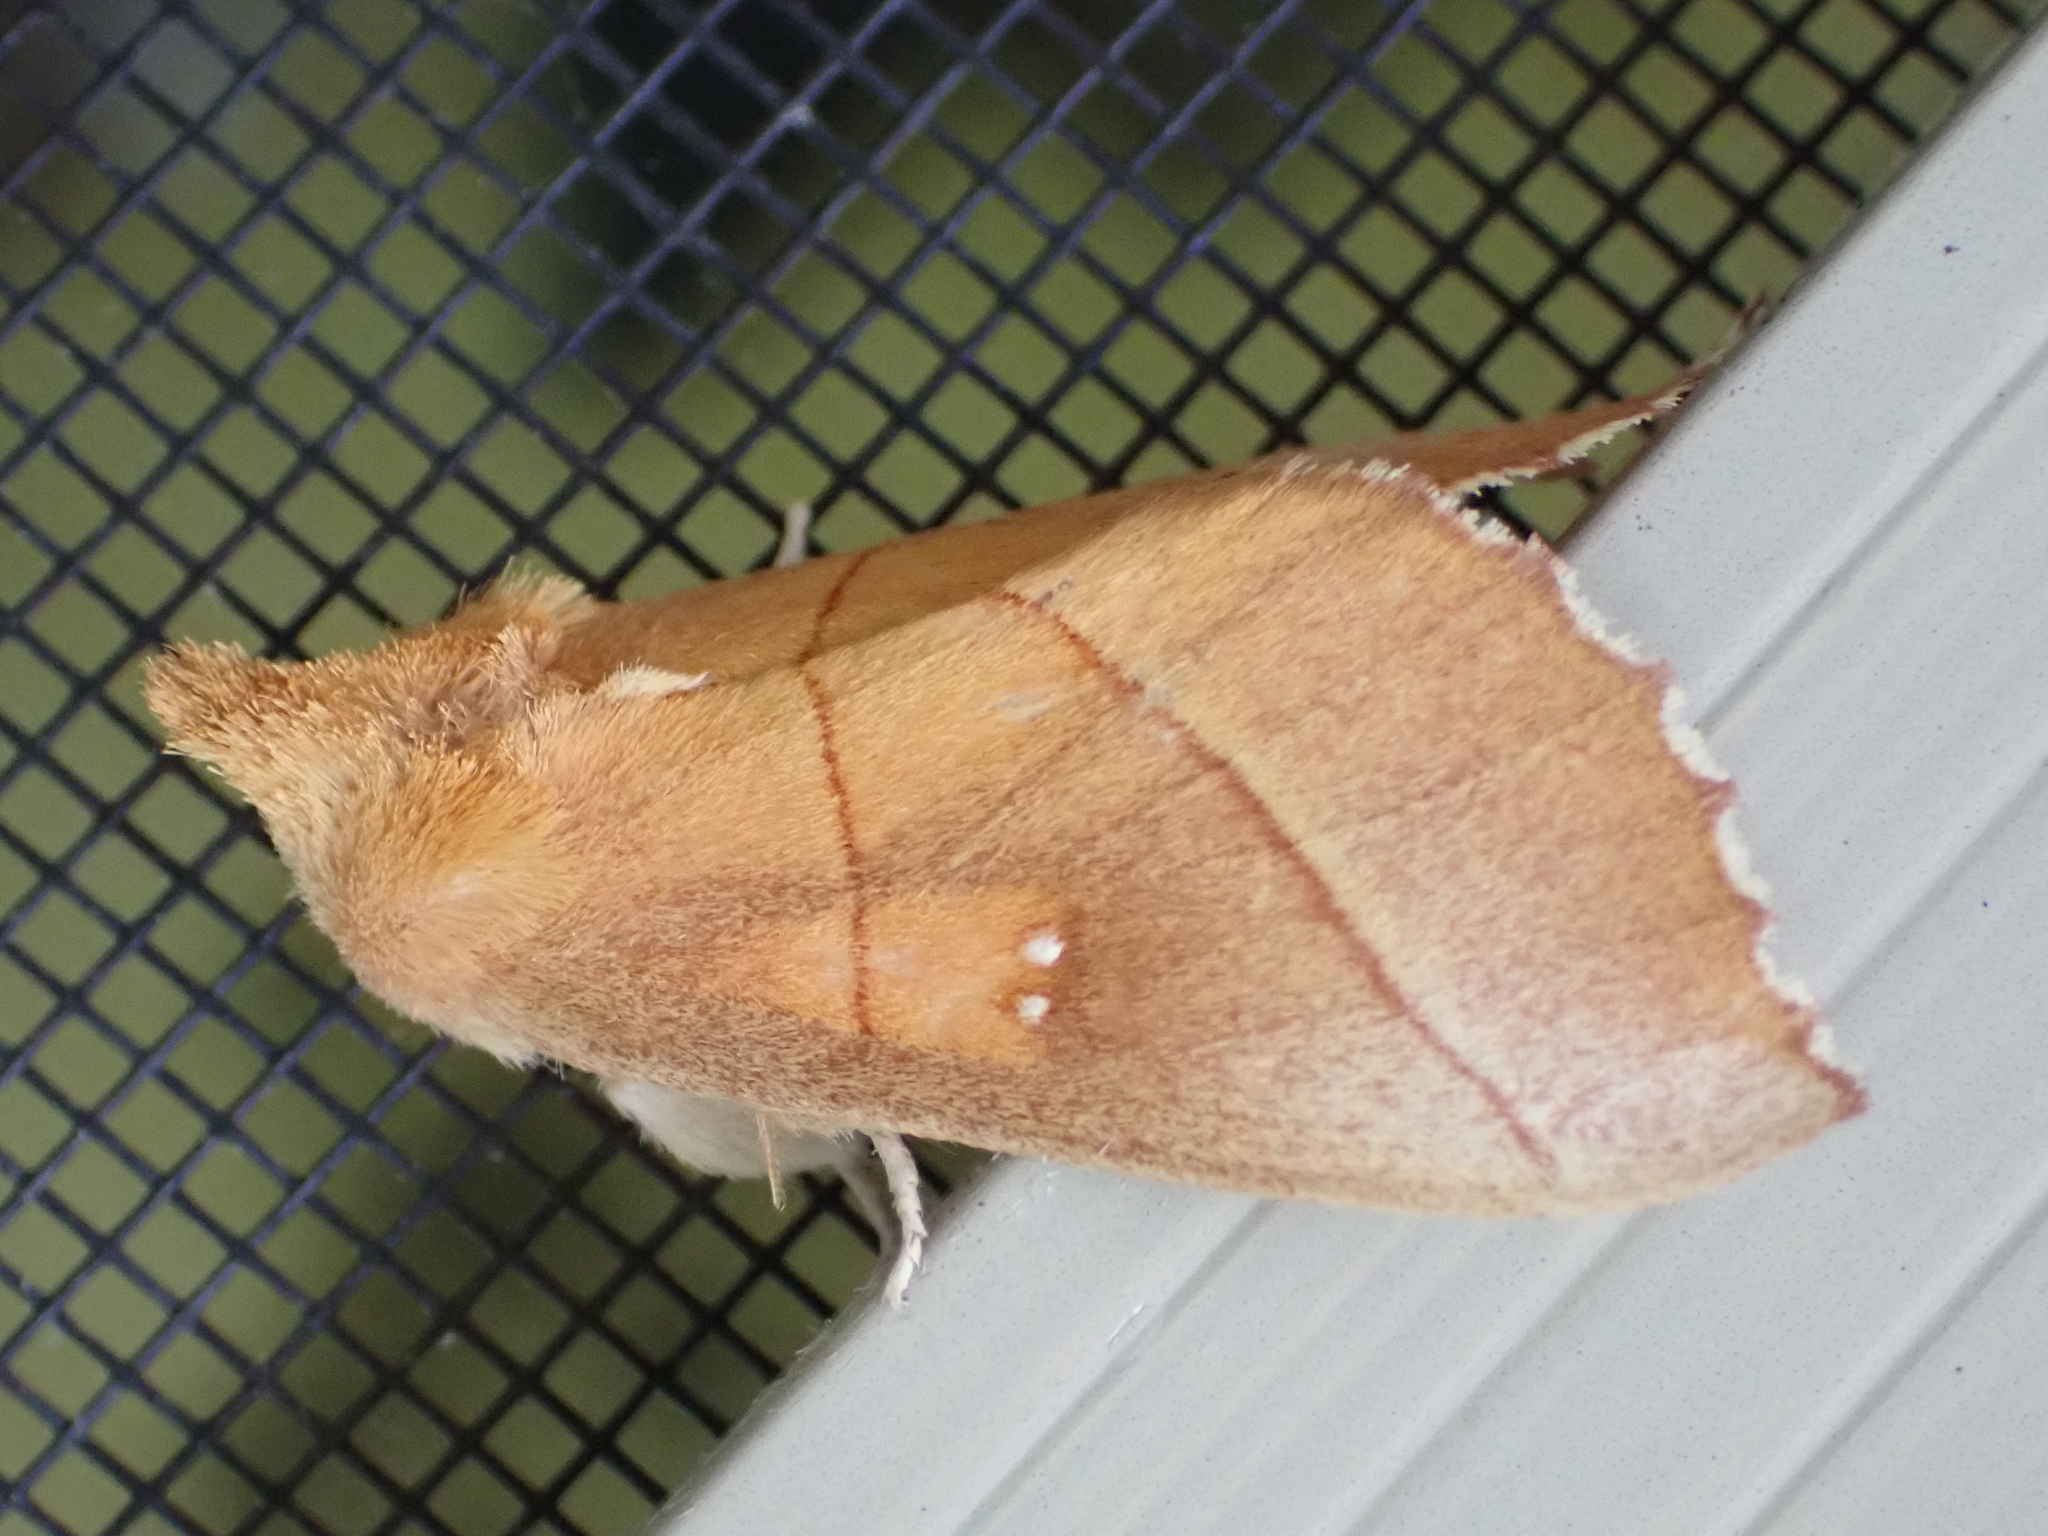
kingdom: Animalia
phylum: Arthropoda
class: Insecta
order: Lepidoptera
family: Notodontidae
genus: Nadata
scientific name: Nadata gibbosa
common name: White-dotted prominent
